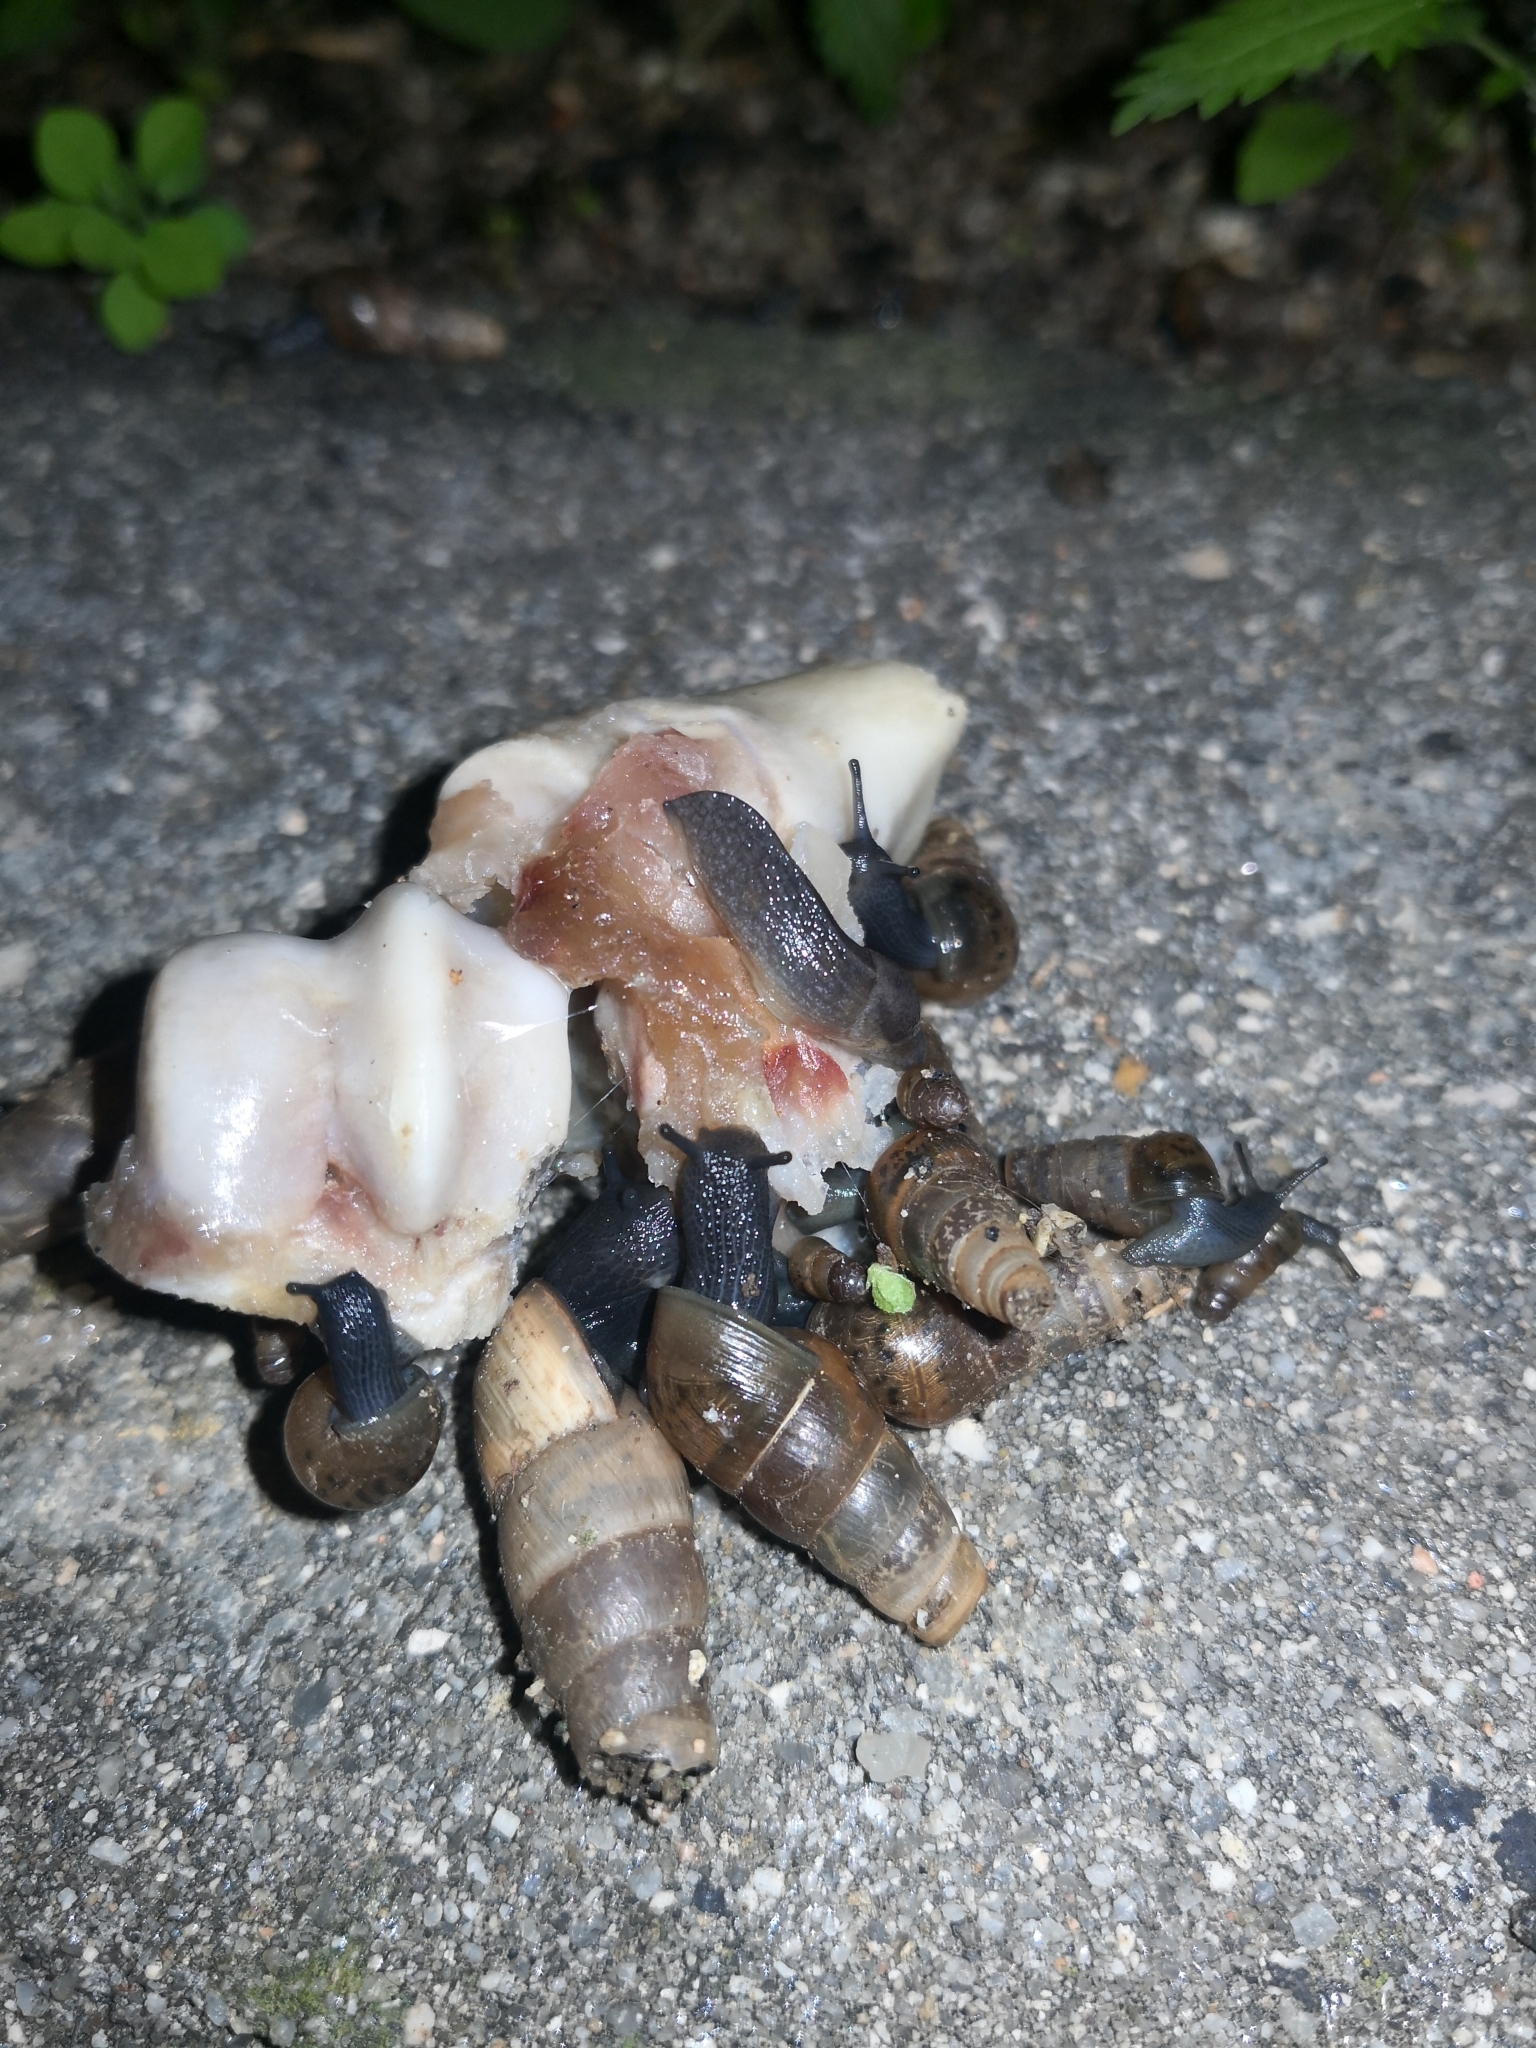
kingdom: Animalia
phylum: Mollusca
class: Gastropoda
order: Stylommatophora
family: Achatinidae
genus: Rumina
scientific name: Rumina decollata
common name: Decollate snail
